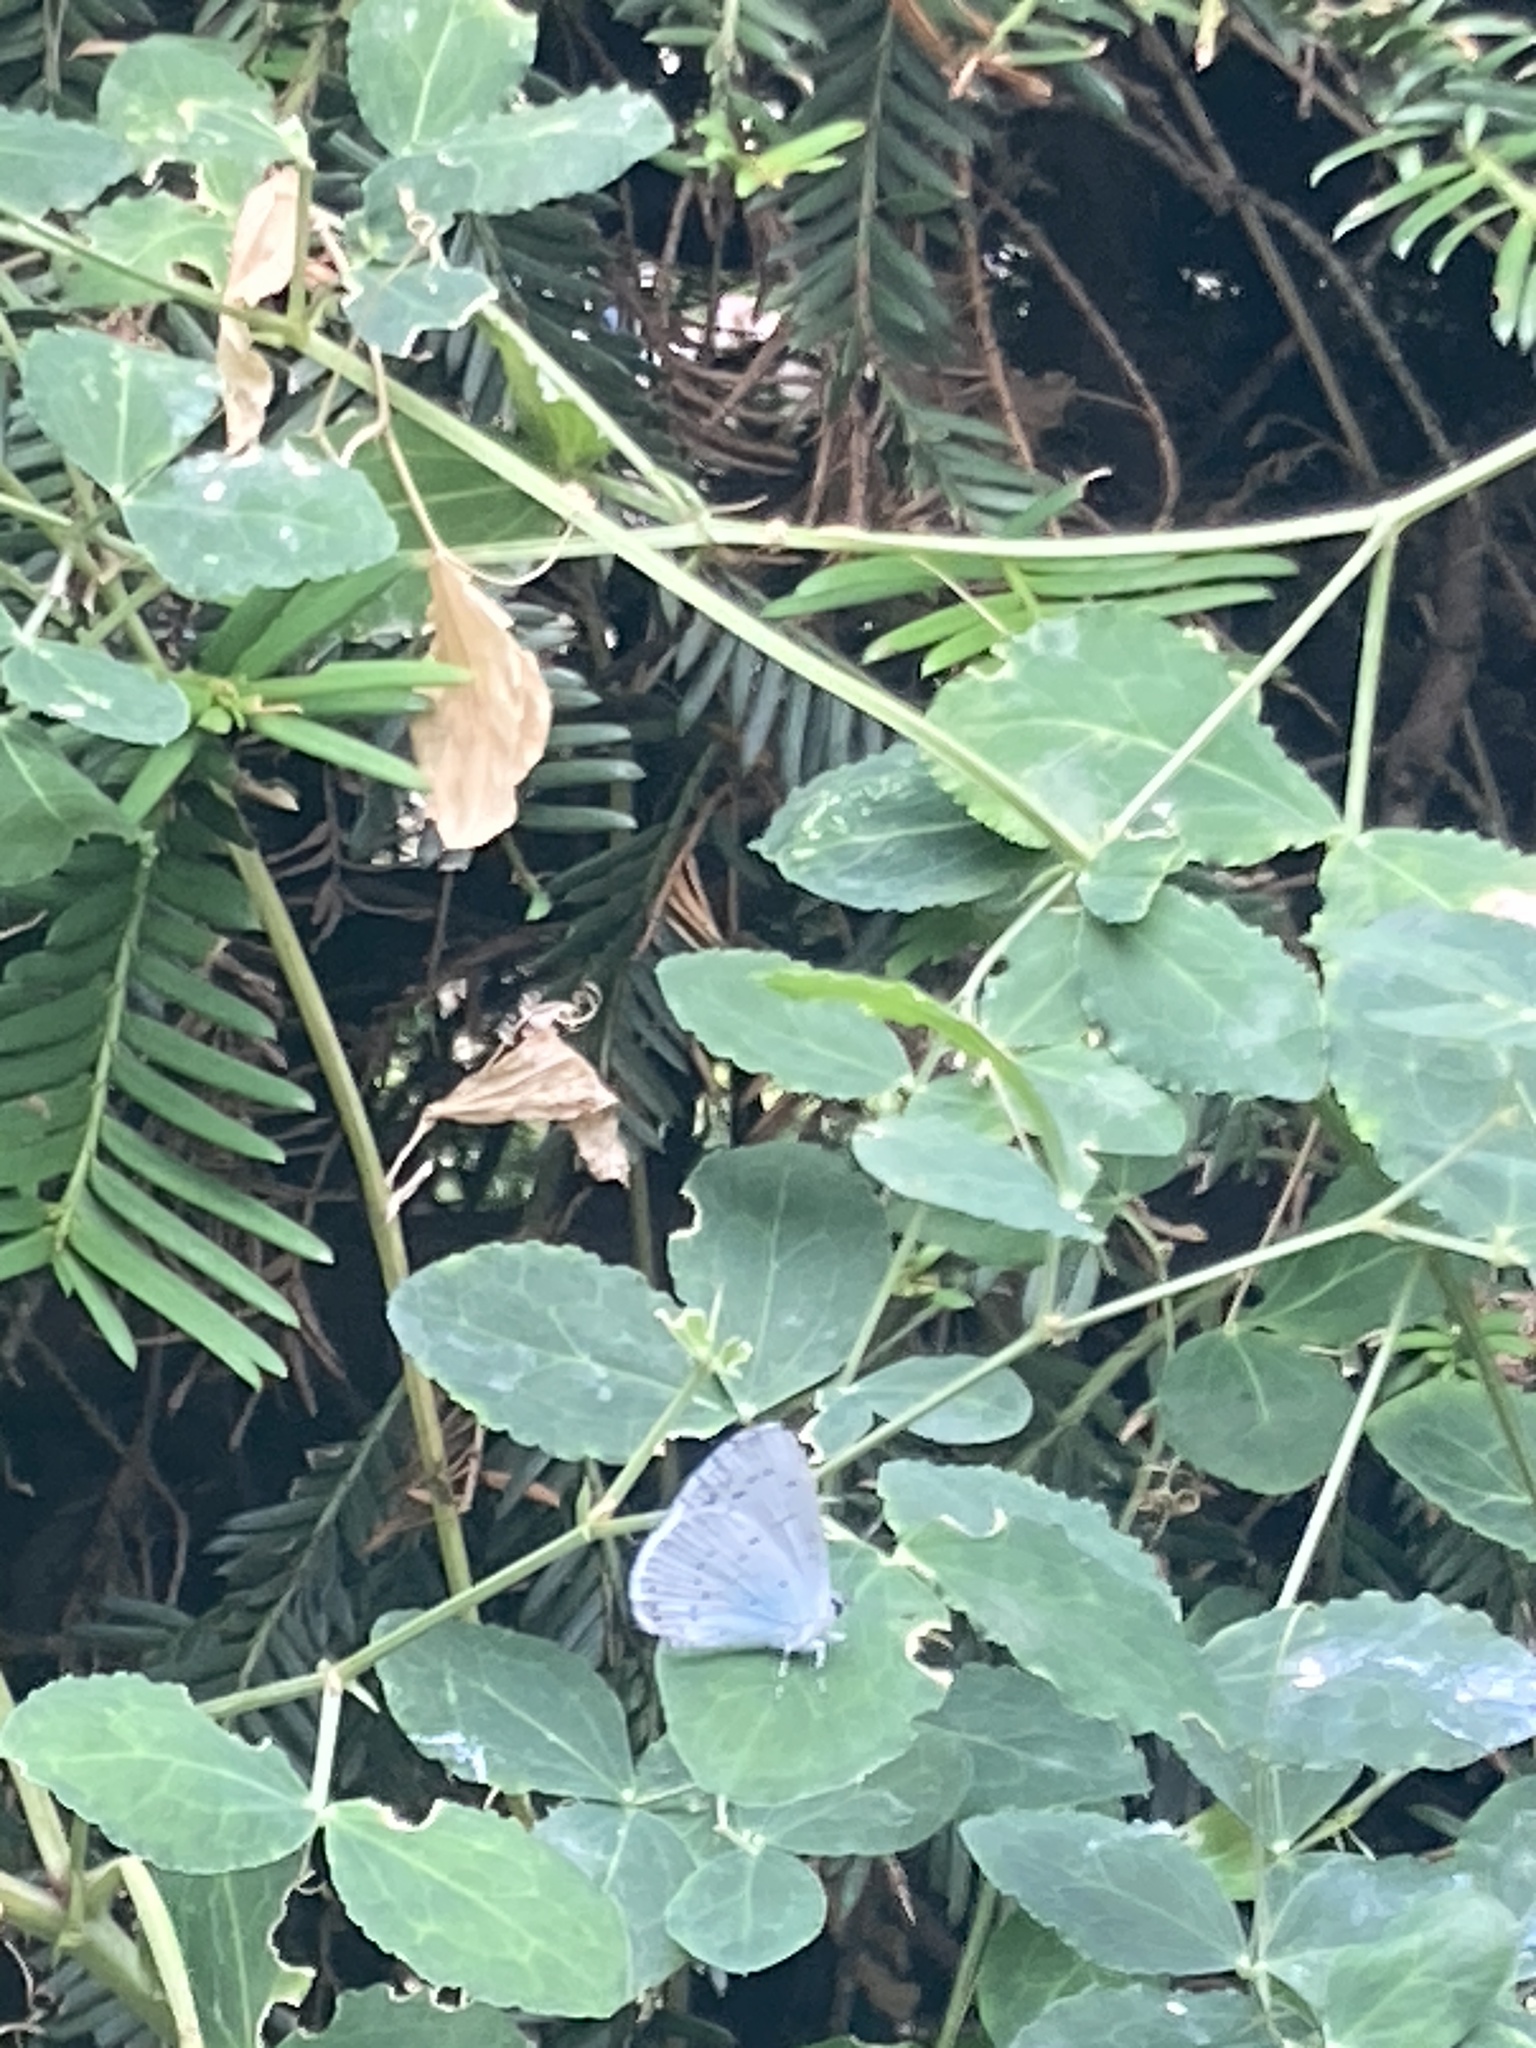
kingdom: Animalia
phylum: Arthropoda
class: Insecta
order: Lepidoptera
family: Lycaenidae
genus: Celastrina
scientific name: Celastrina argiolus
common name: Holly blue
